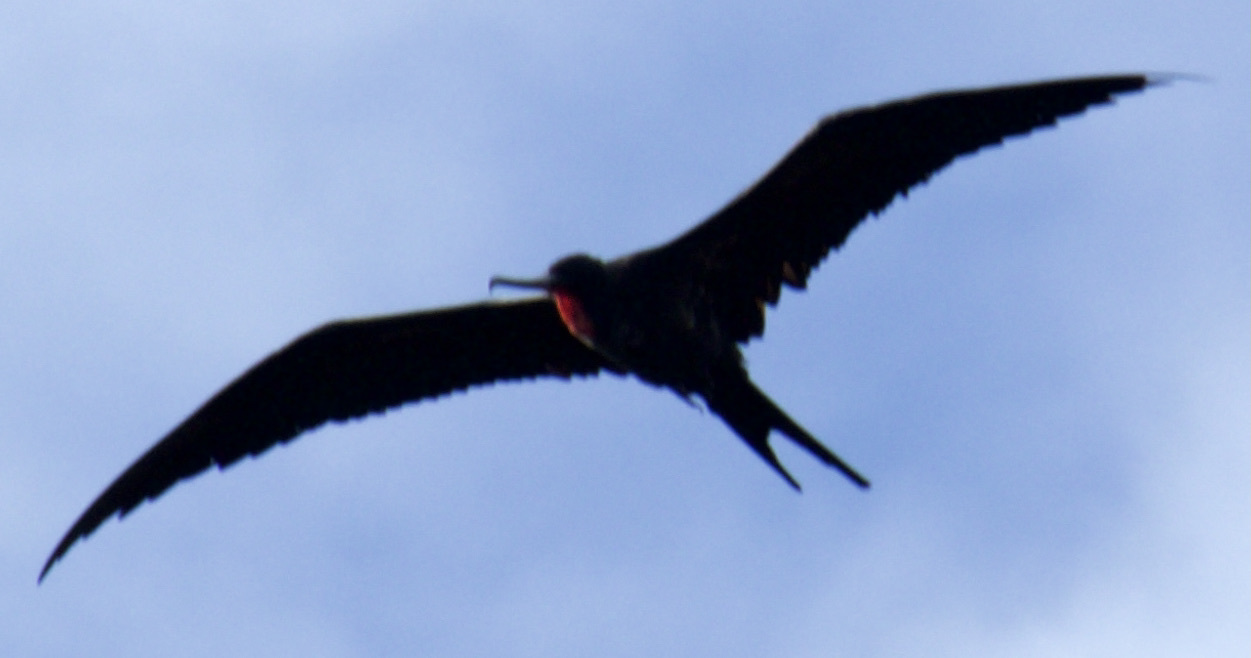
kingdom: Animalia
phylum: Chordata
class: Aves
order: Suliformes
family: Fregatidae
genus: Fregata
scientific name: Fregata minor
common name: Great frigatebird
